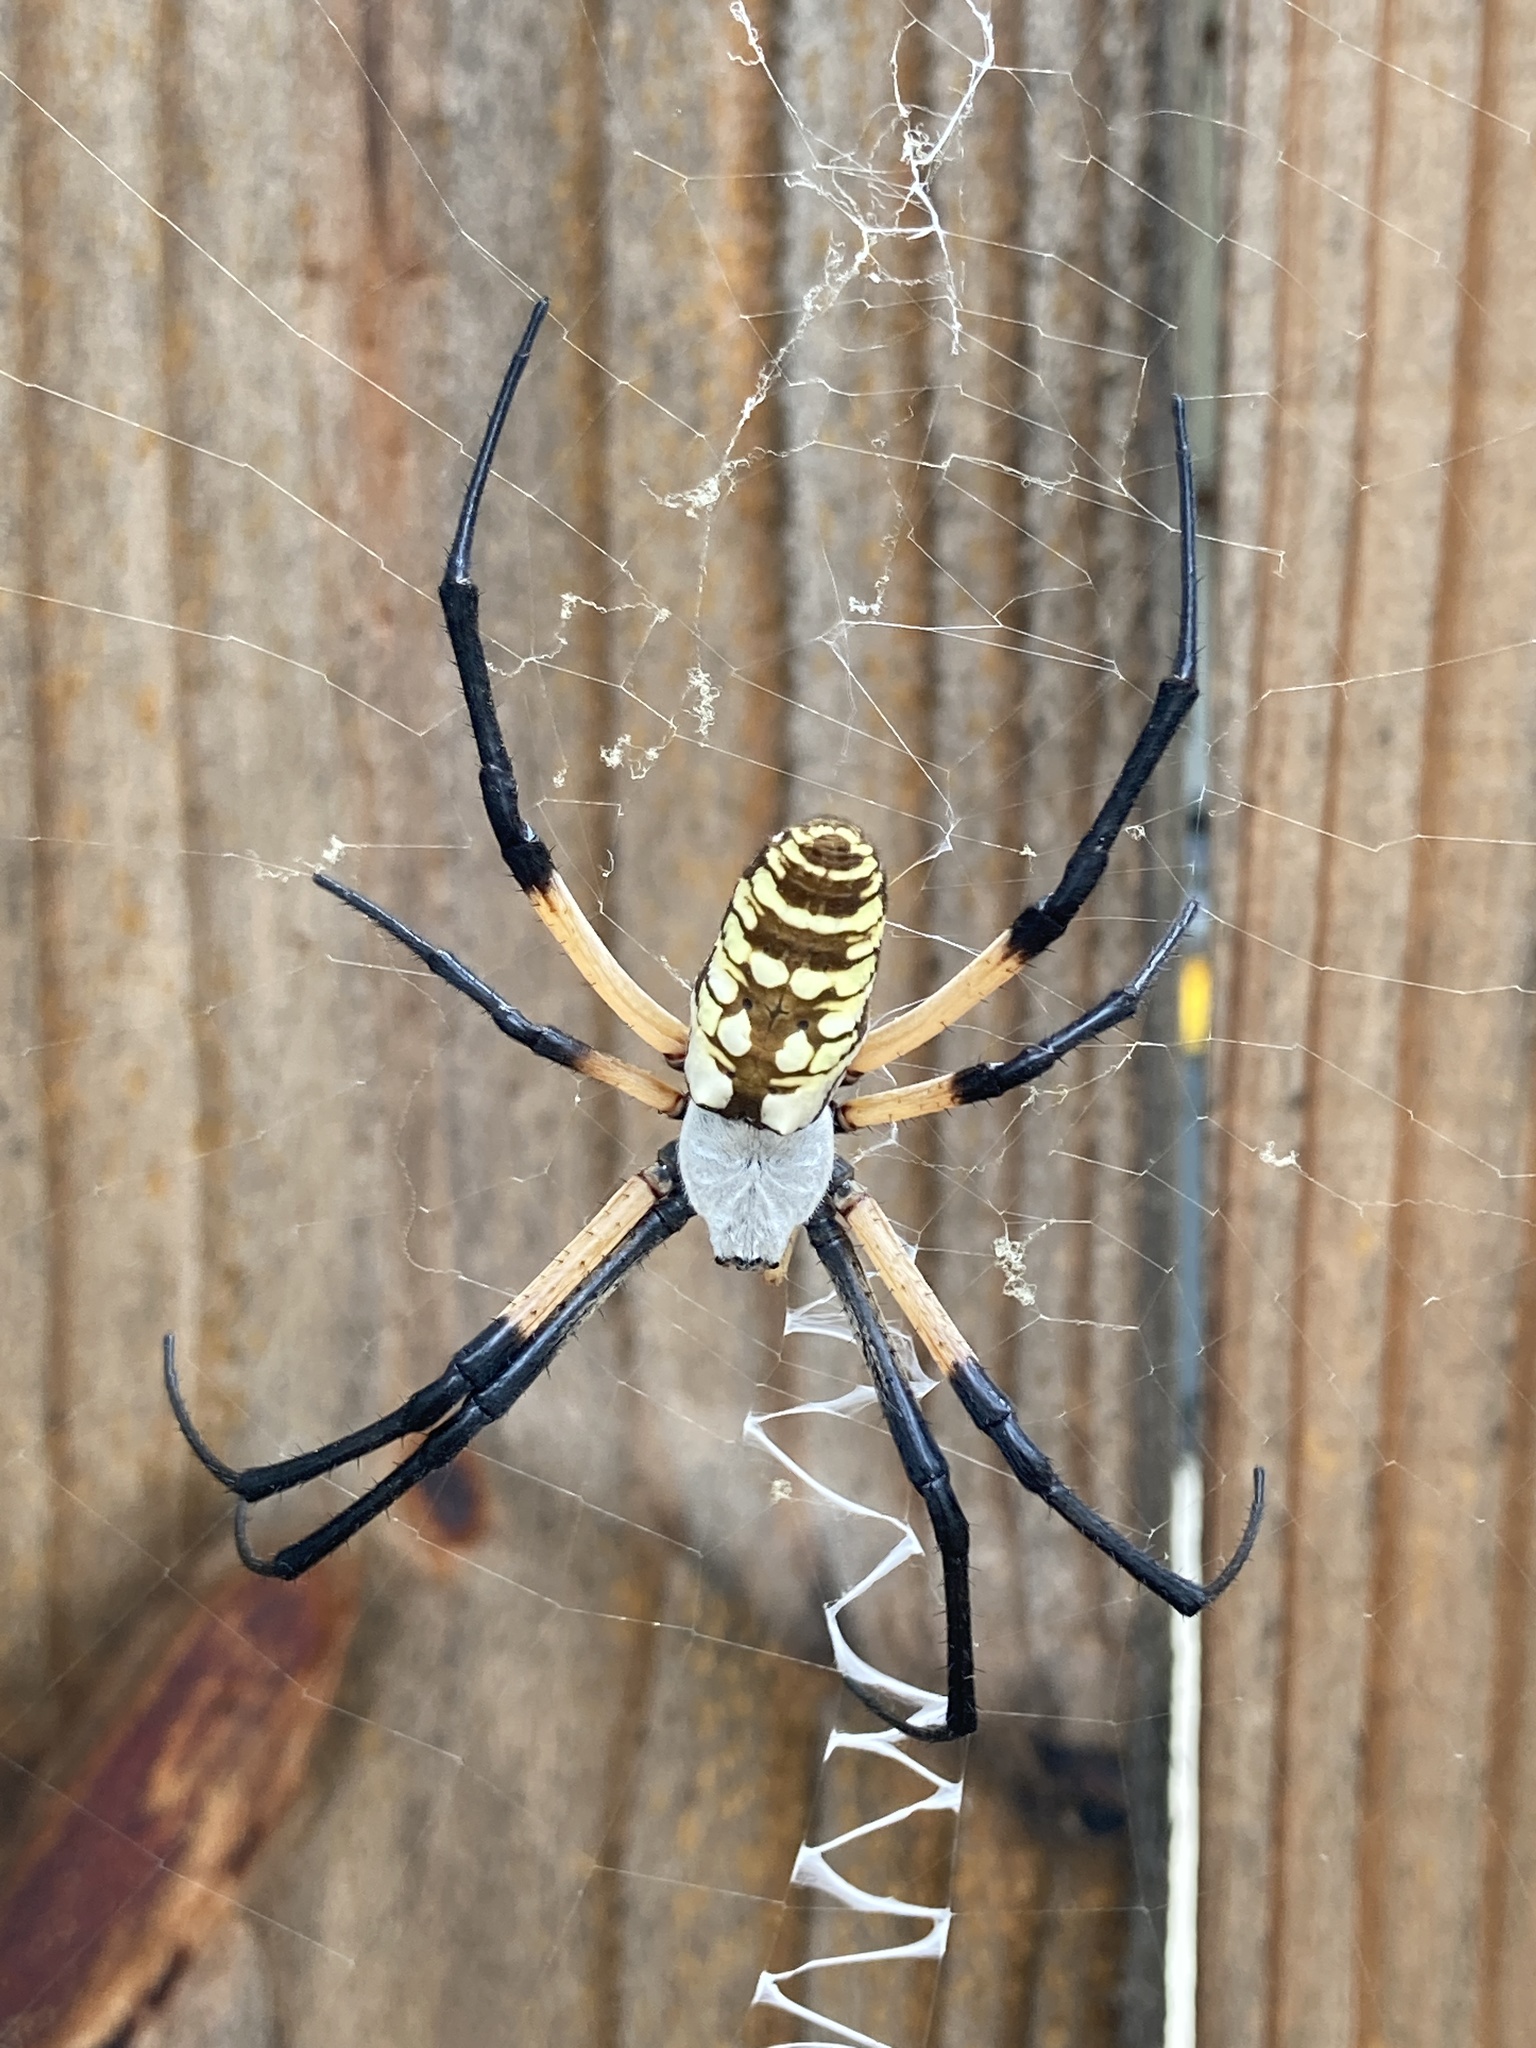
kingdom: Animalia
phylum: Arthropoda
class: Arachnida
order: Araneae
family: Araneidae
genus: Argiope
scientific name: Argiope aurantia
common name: Orb weavers
